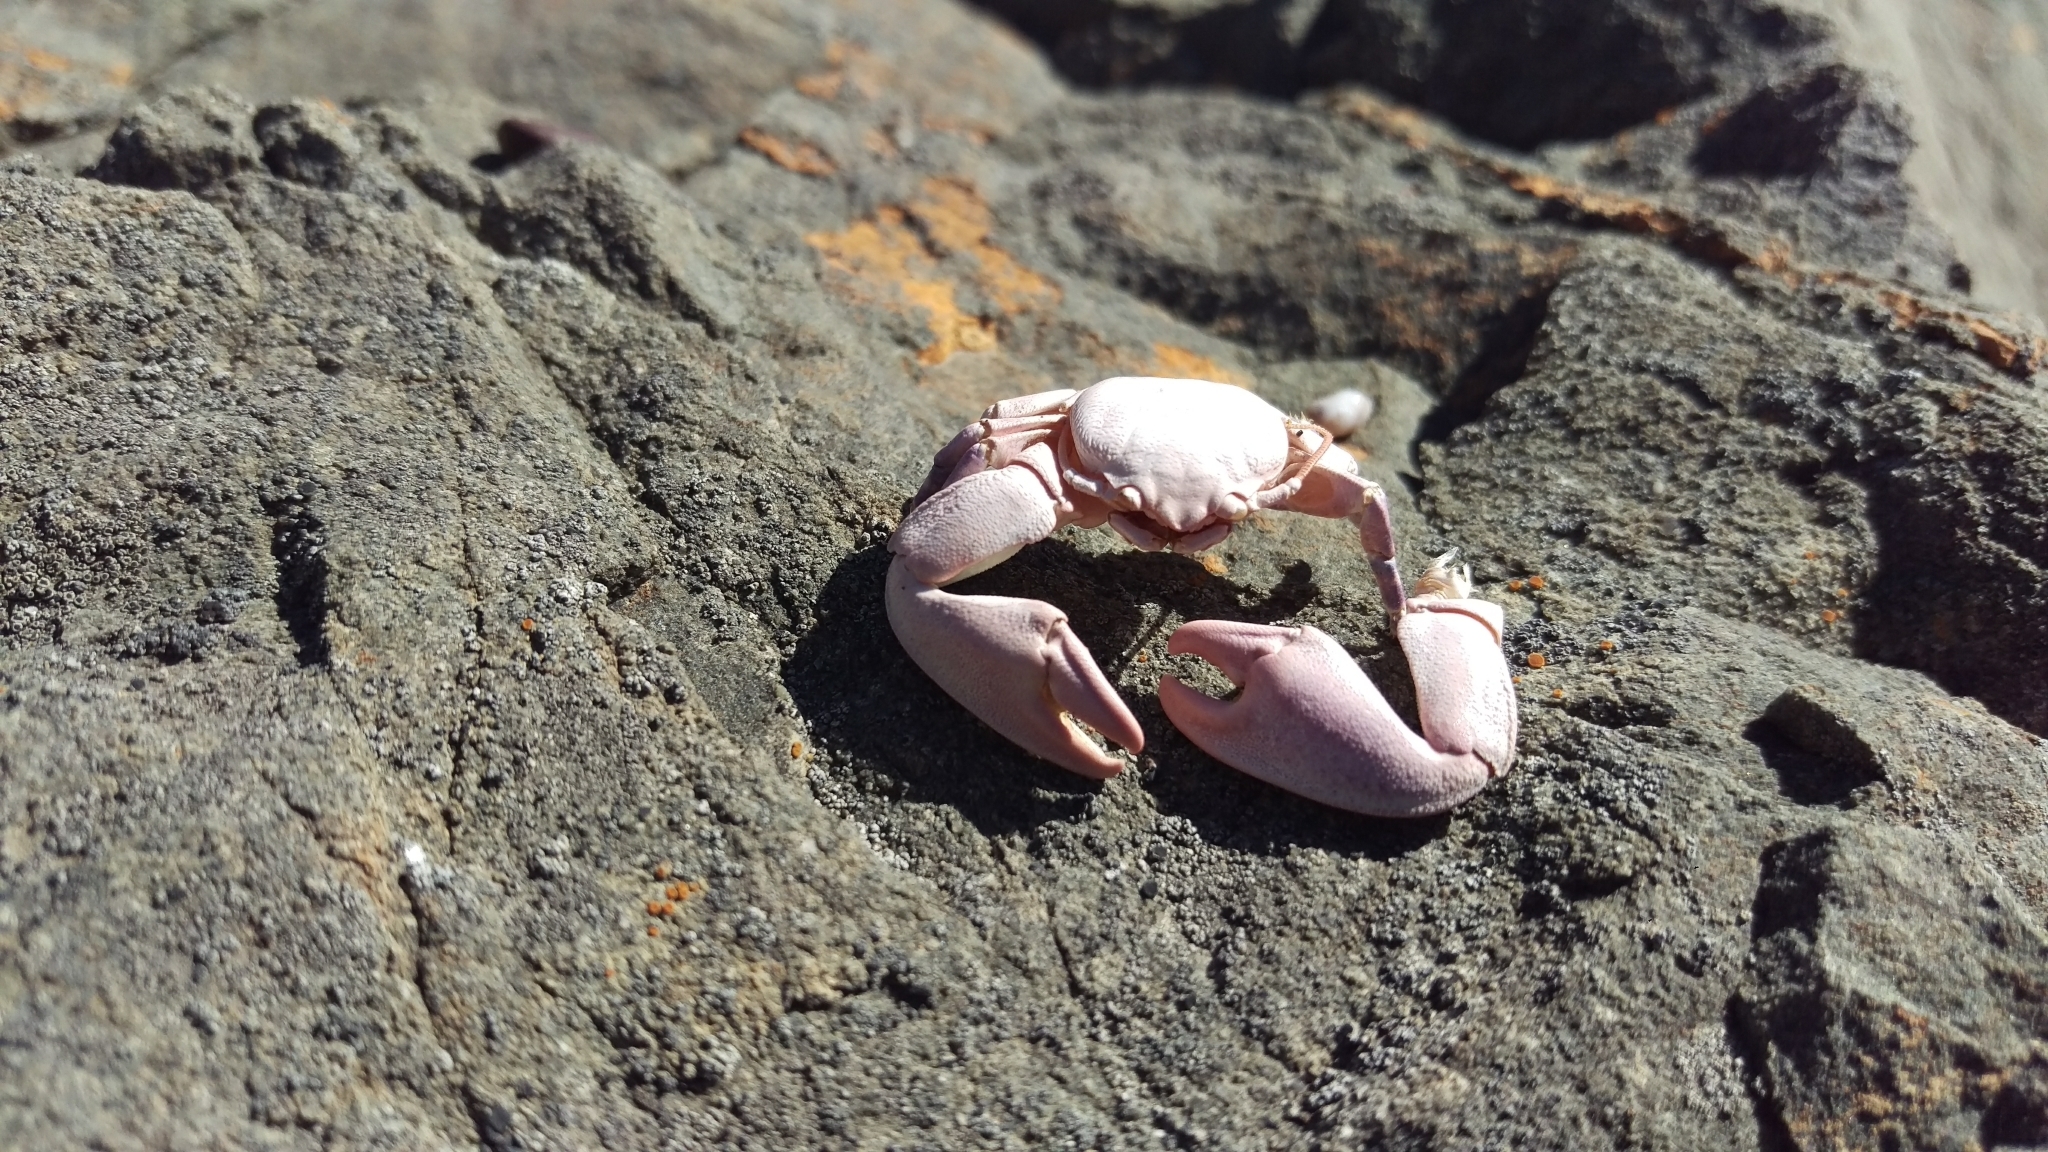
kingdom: Animalia
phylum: Arthropoda
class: Malacostraca
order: Decapoda
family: Porcellanidae
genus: Petrolisthes
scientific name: Petrolisthes cinctipes
